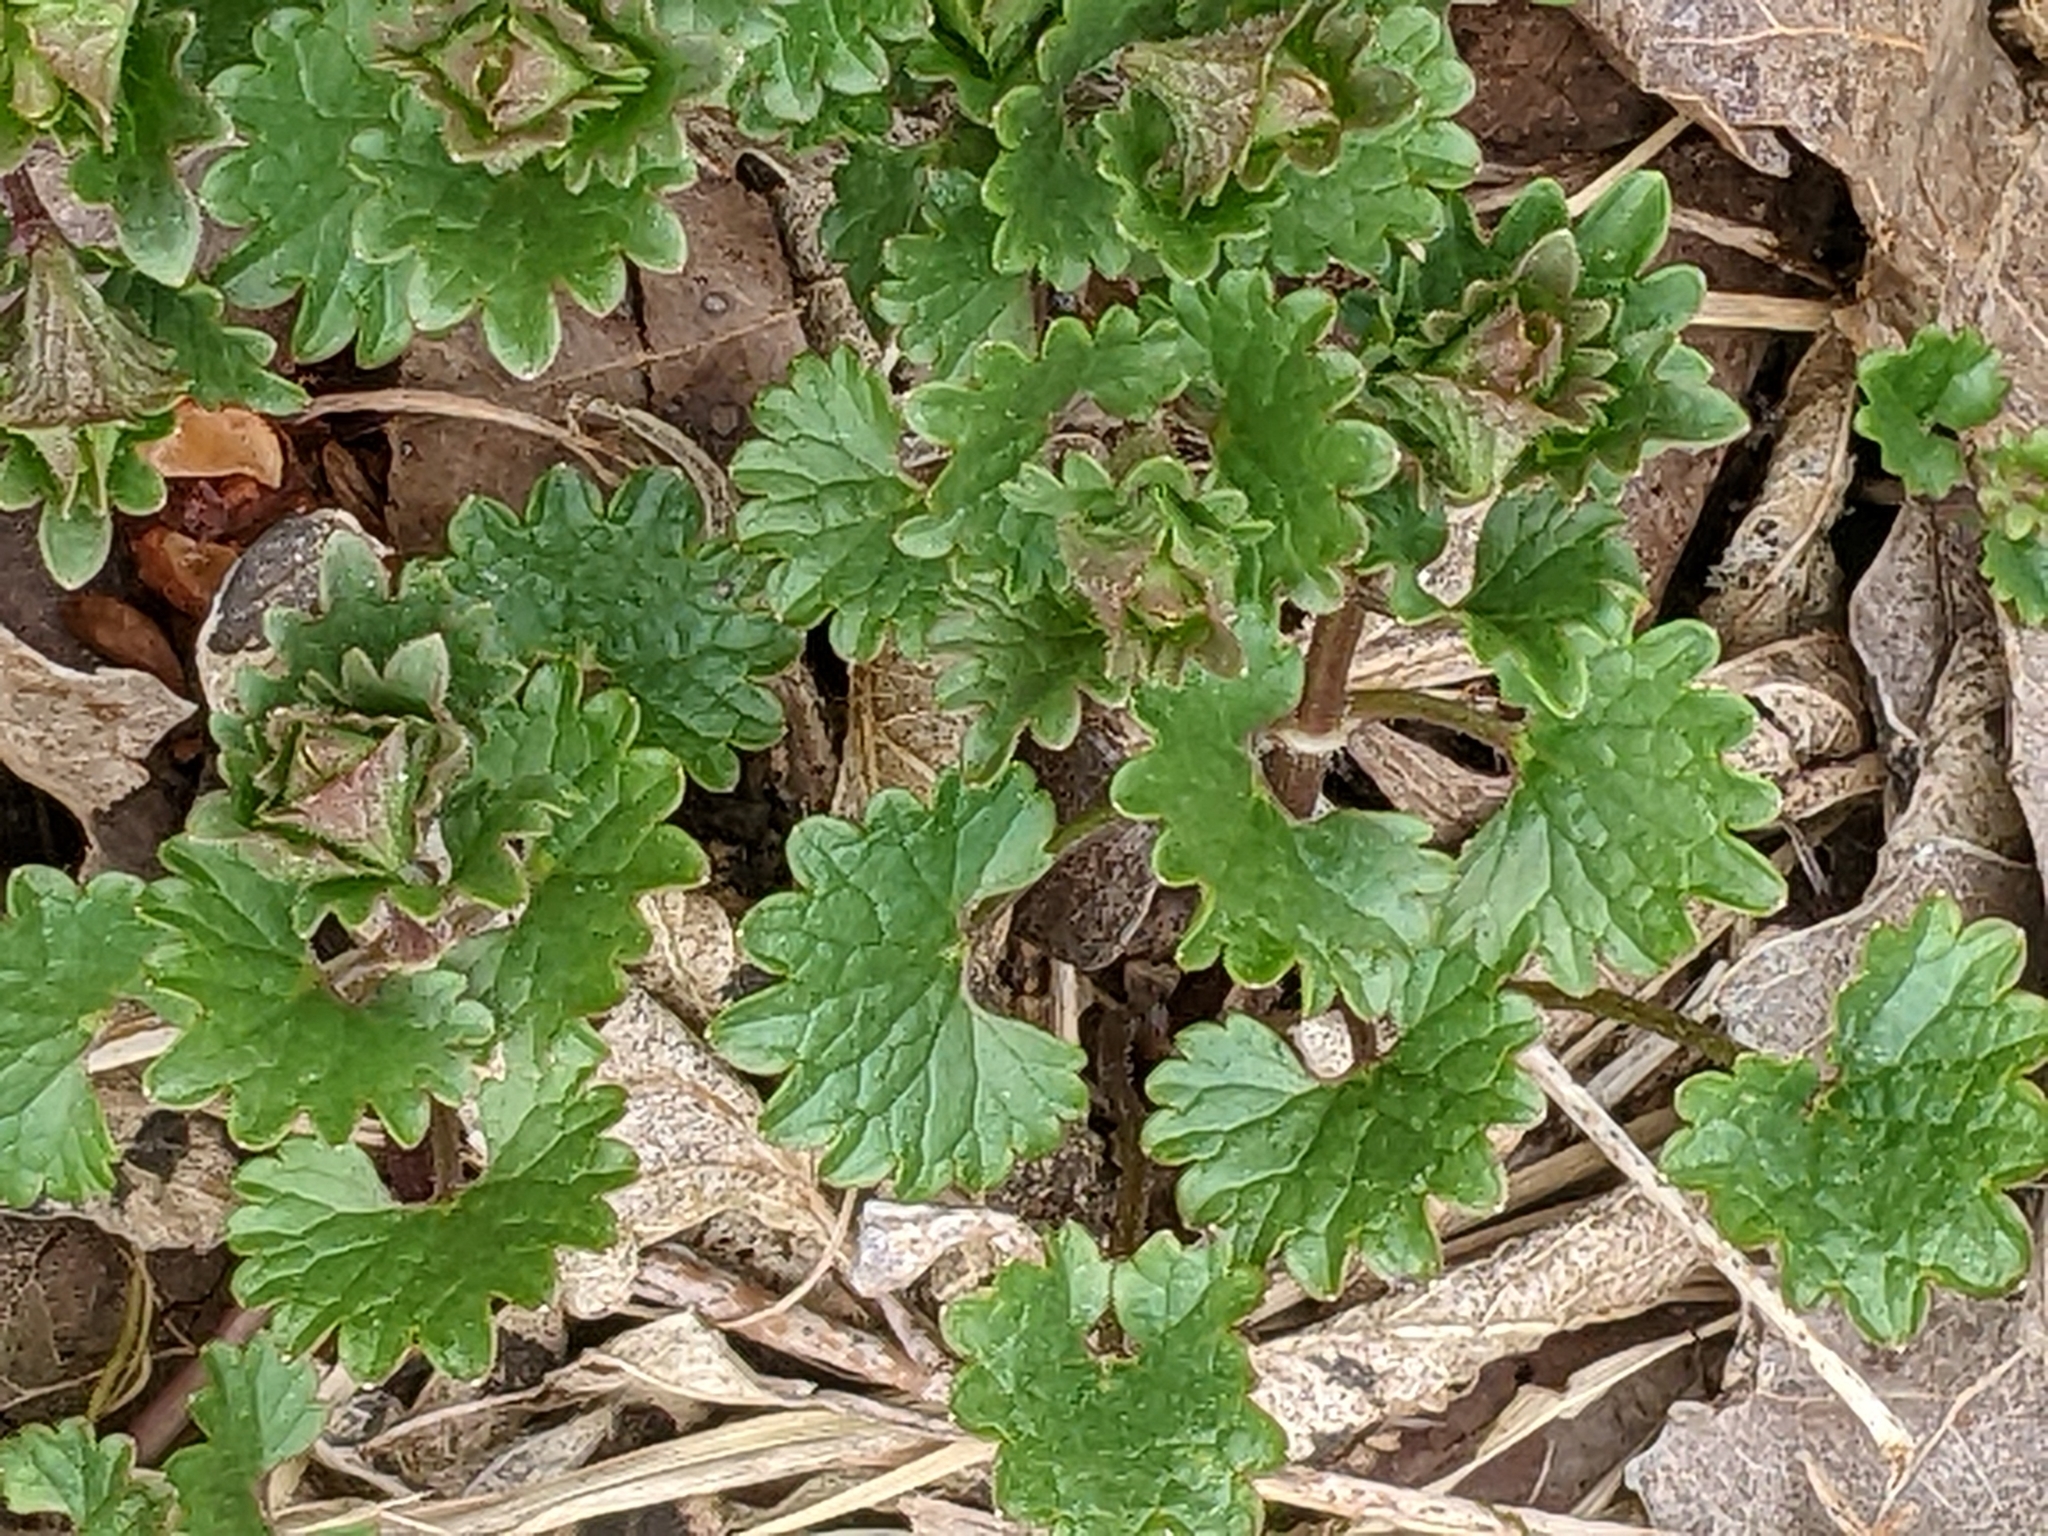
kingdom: Plantae
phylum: Tracheophyta
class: Magnoliopsida
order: Lamiales
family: Lamiaceae
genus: Glechoma
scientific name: Glechoma hederacea
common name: Ground ivy
